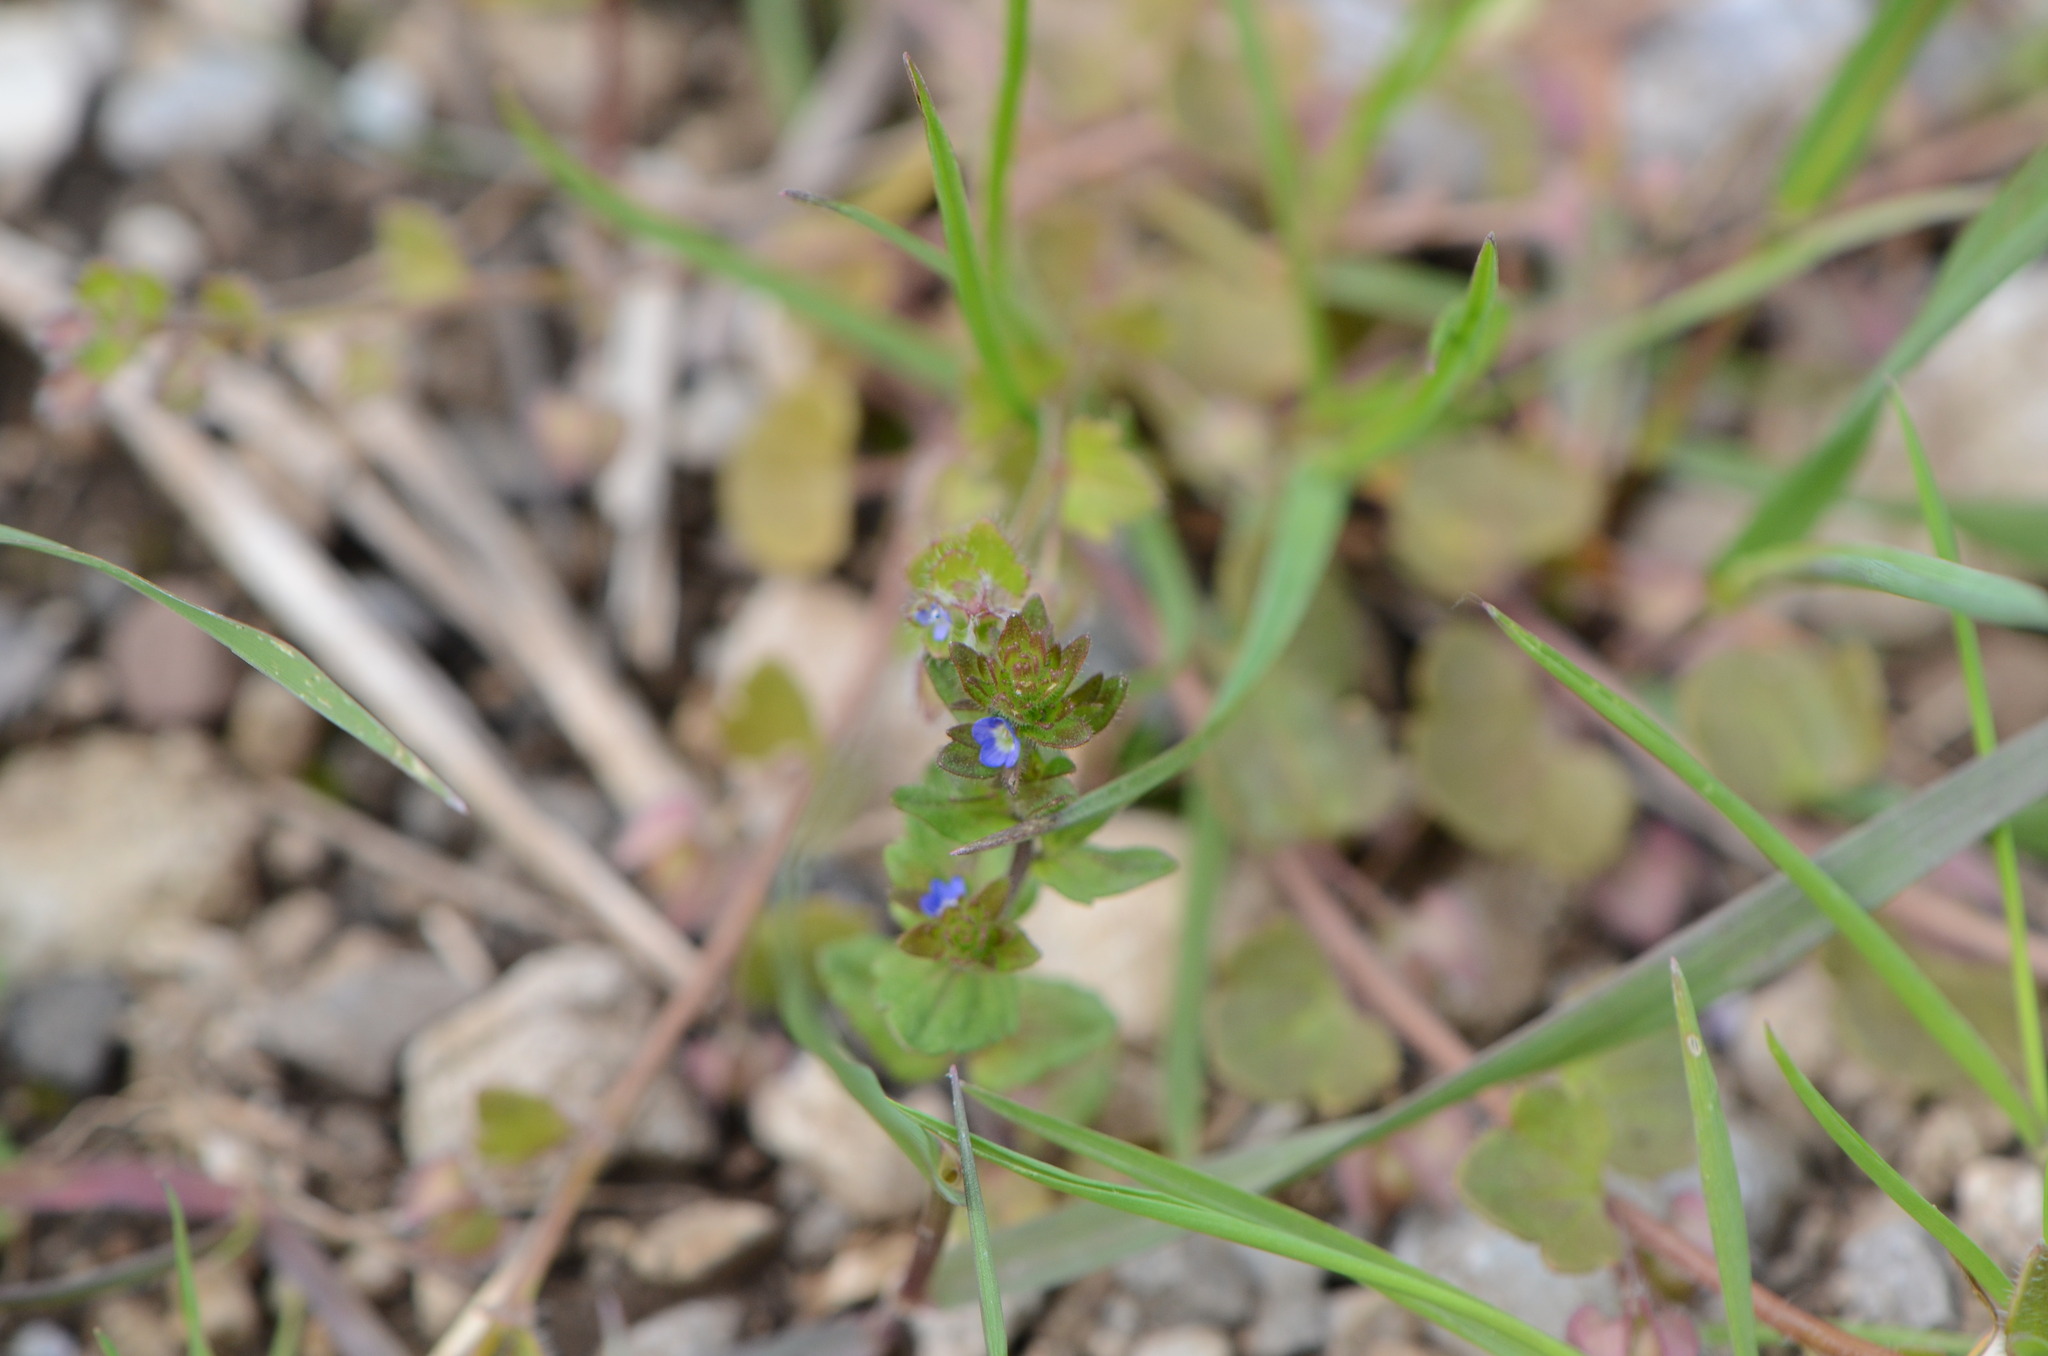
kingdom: Plantae
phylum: Tracheophyta
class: Magnoliopsida
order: Lamiales
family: Plantaginaceae
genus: Veronica
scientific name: Veronica arvensis
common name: Corn speedwell
